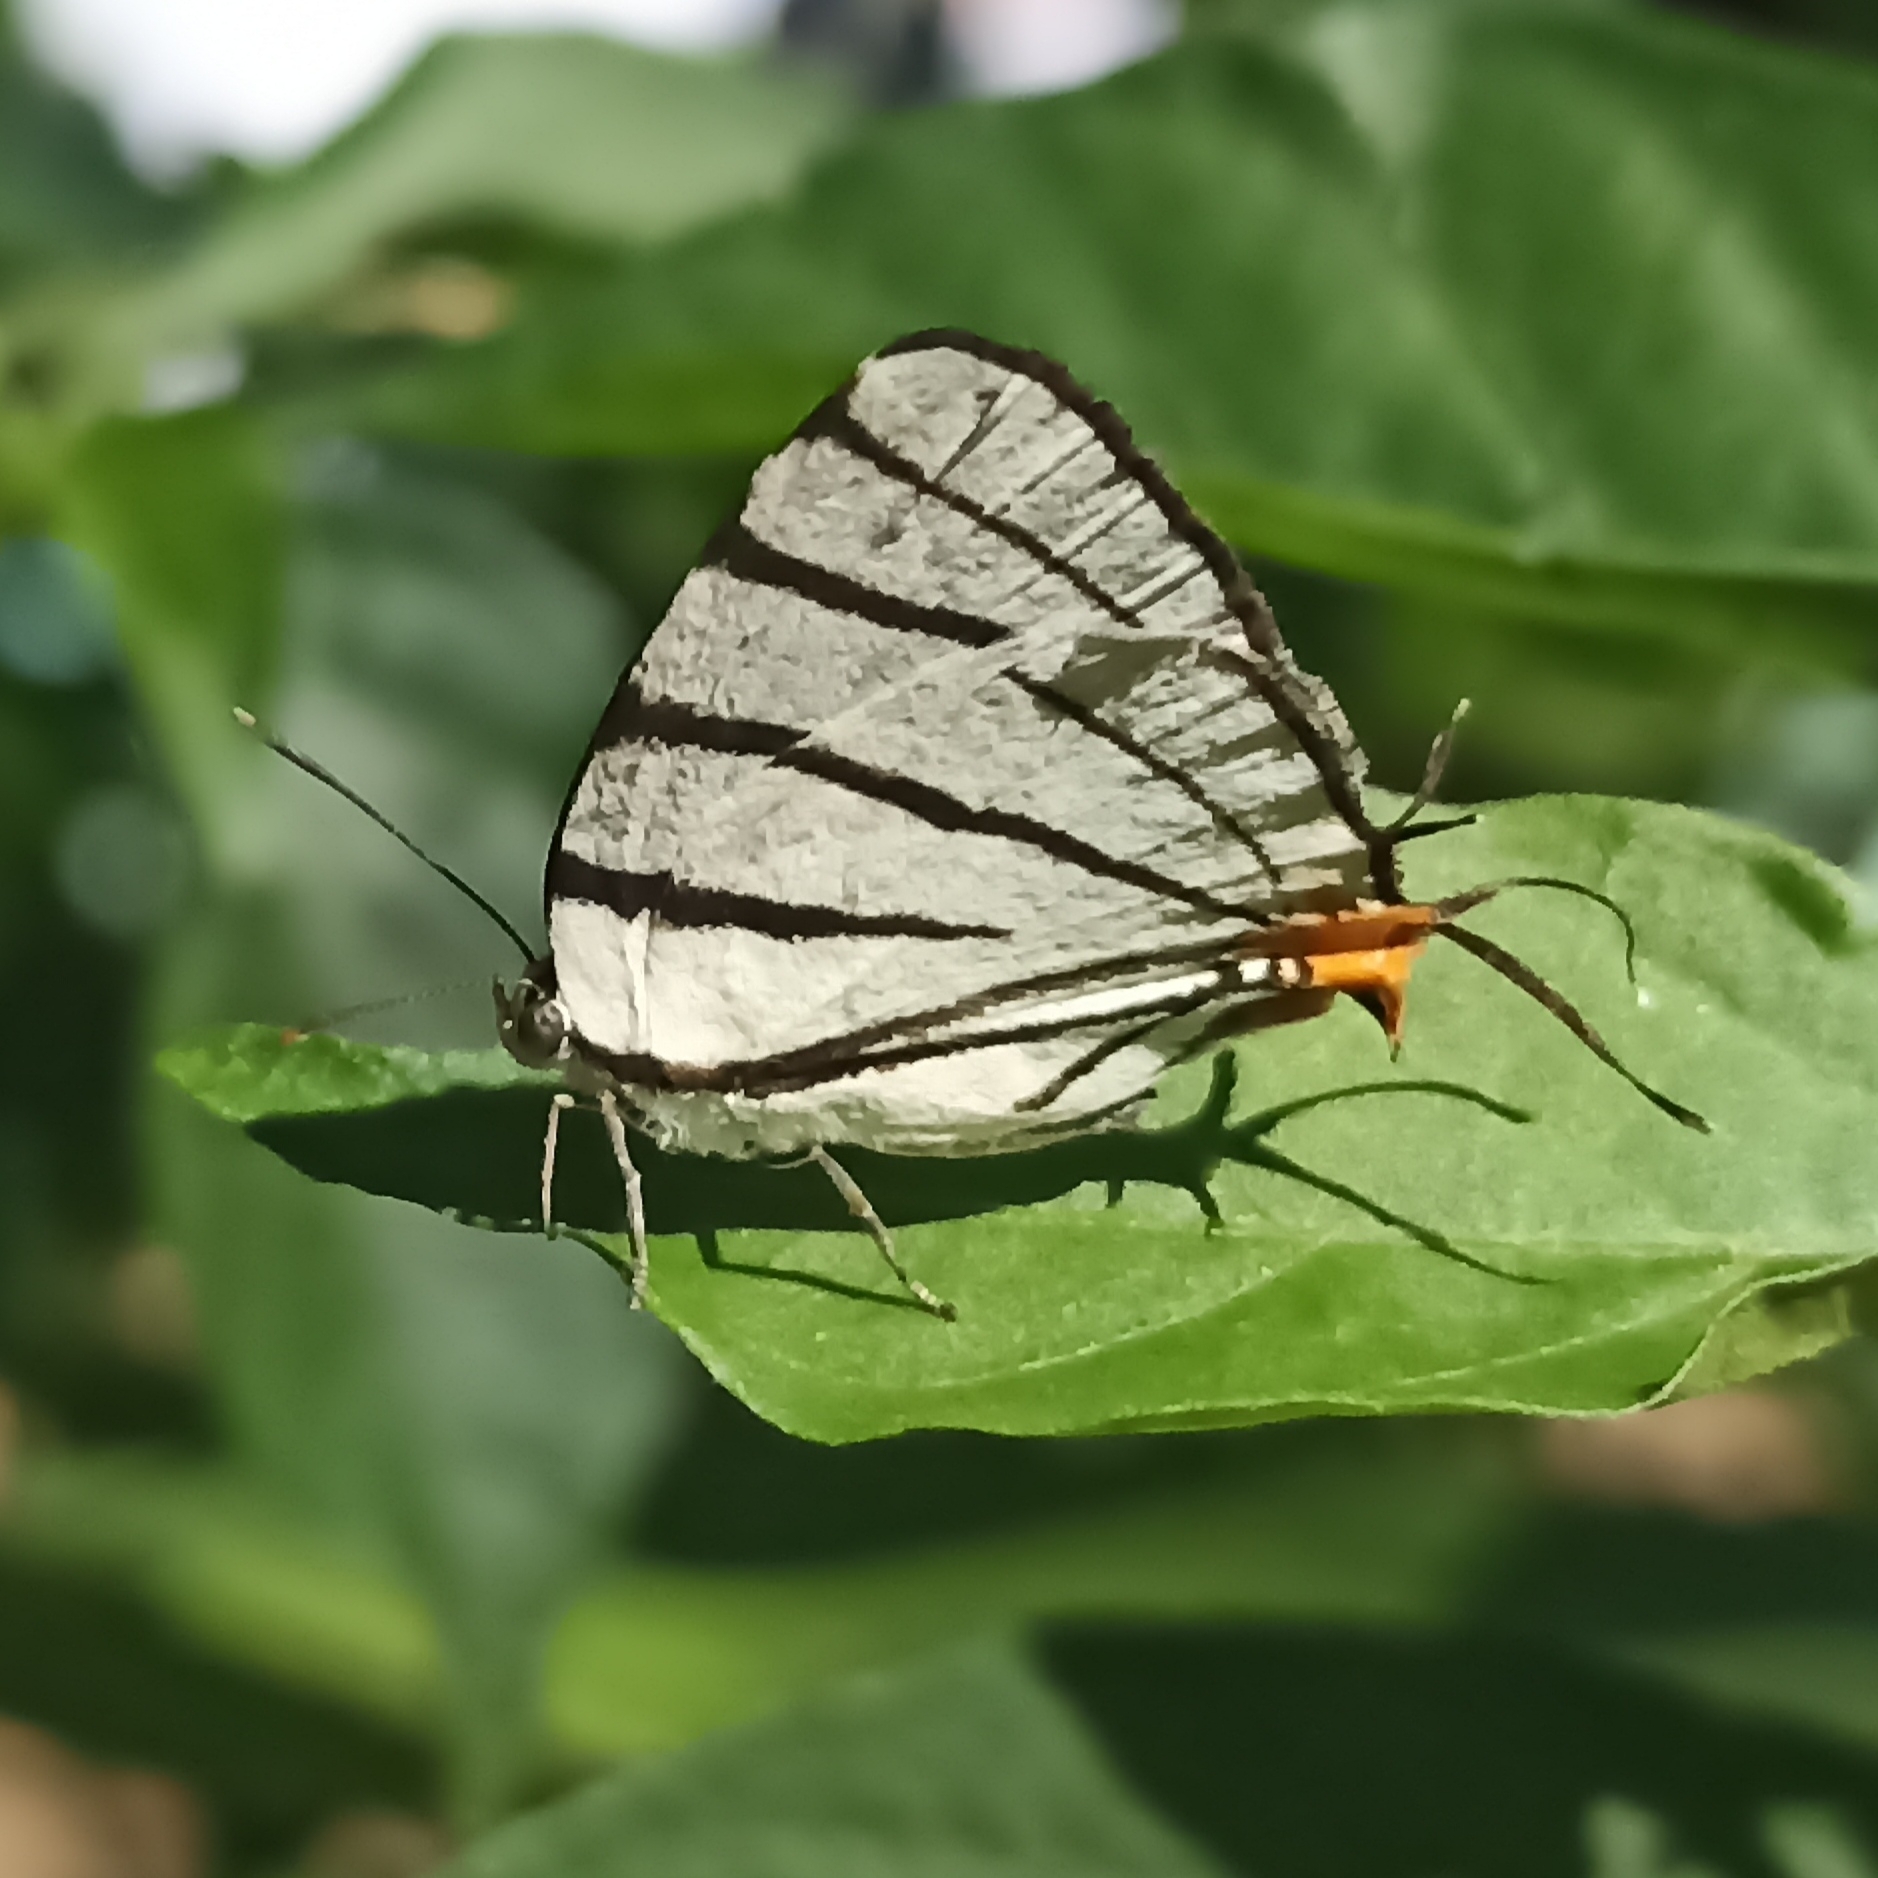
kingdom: Animalia
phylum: Arthropoda
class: Insecta
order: Lepidoptera
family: Lycaenidae
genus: Arawacus
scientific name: Arawacus sito
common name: Fine-lined hairstreak
